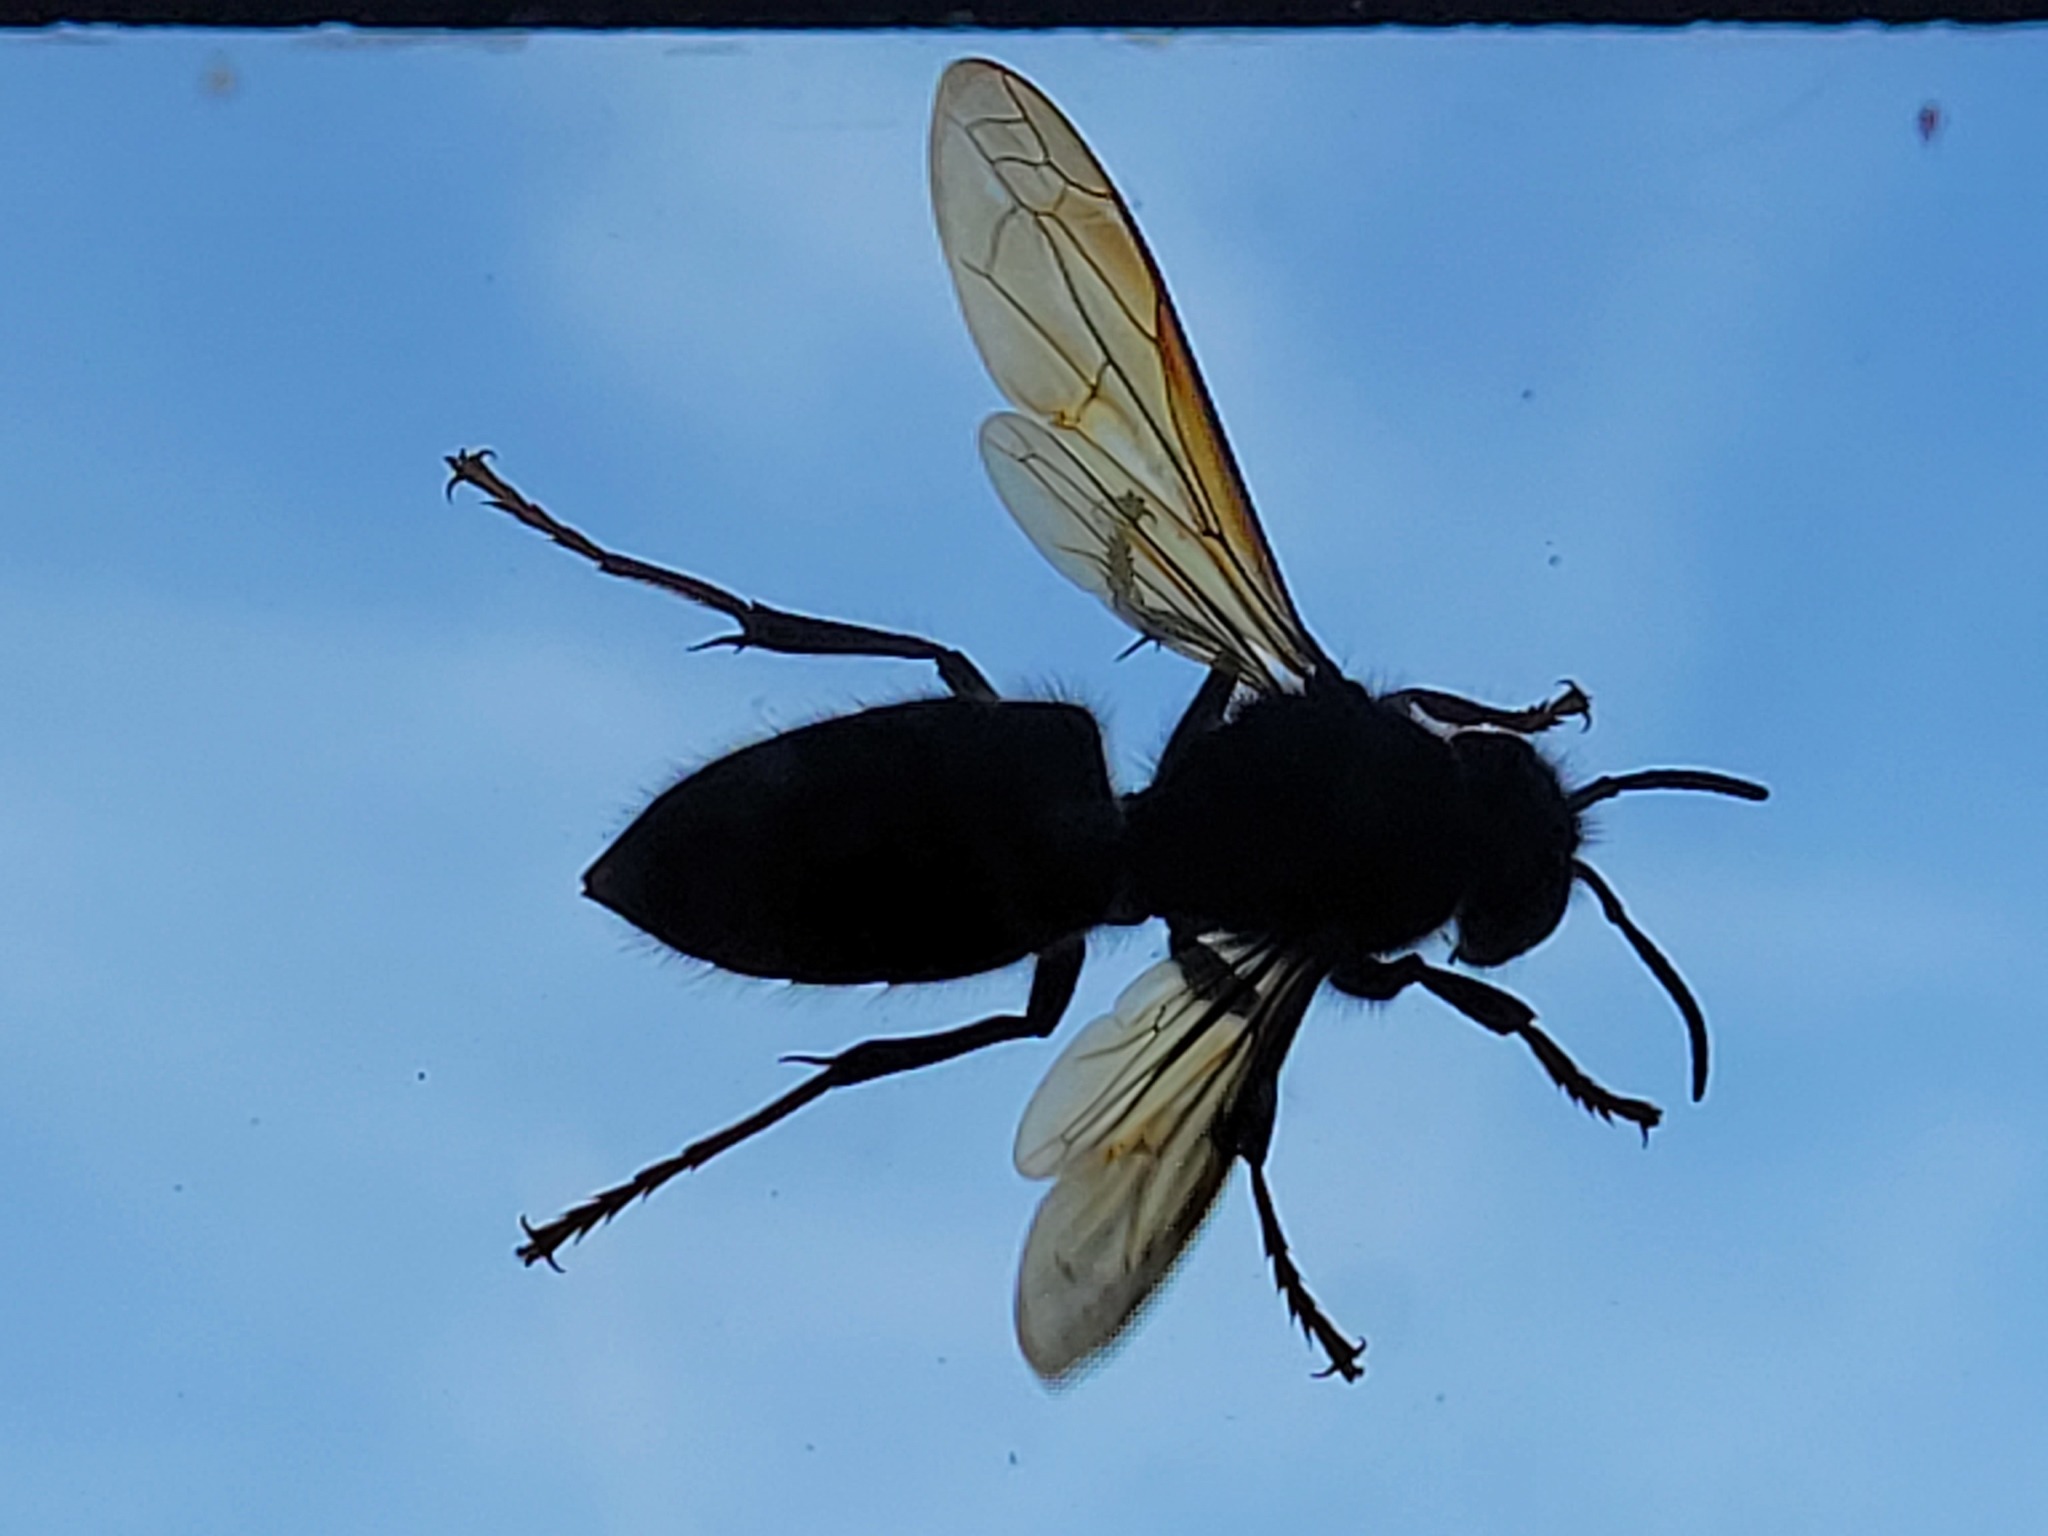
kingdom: Animalia
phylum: Arthropoda
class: Insecta
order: Hymenoptera
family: Vespidae
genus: Vespa
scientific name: Vespa velutina
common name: Asian hornet
